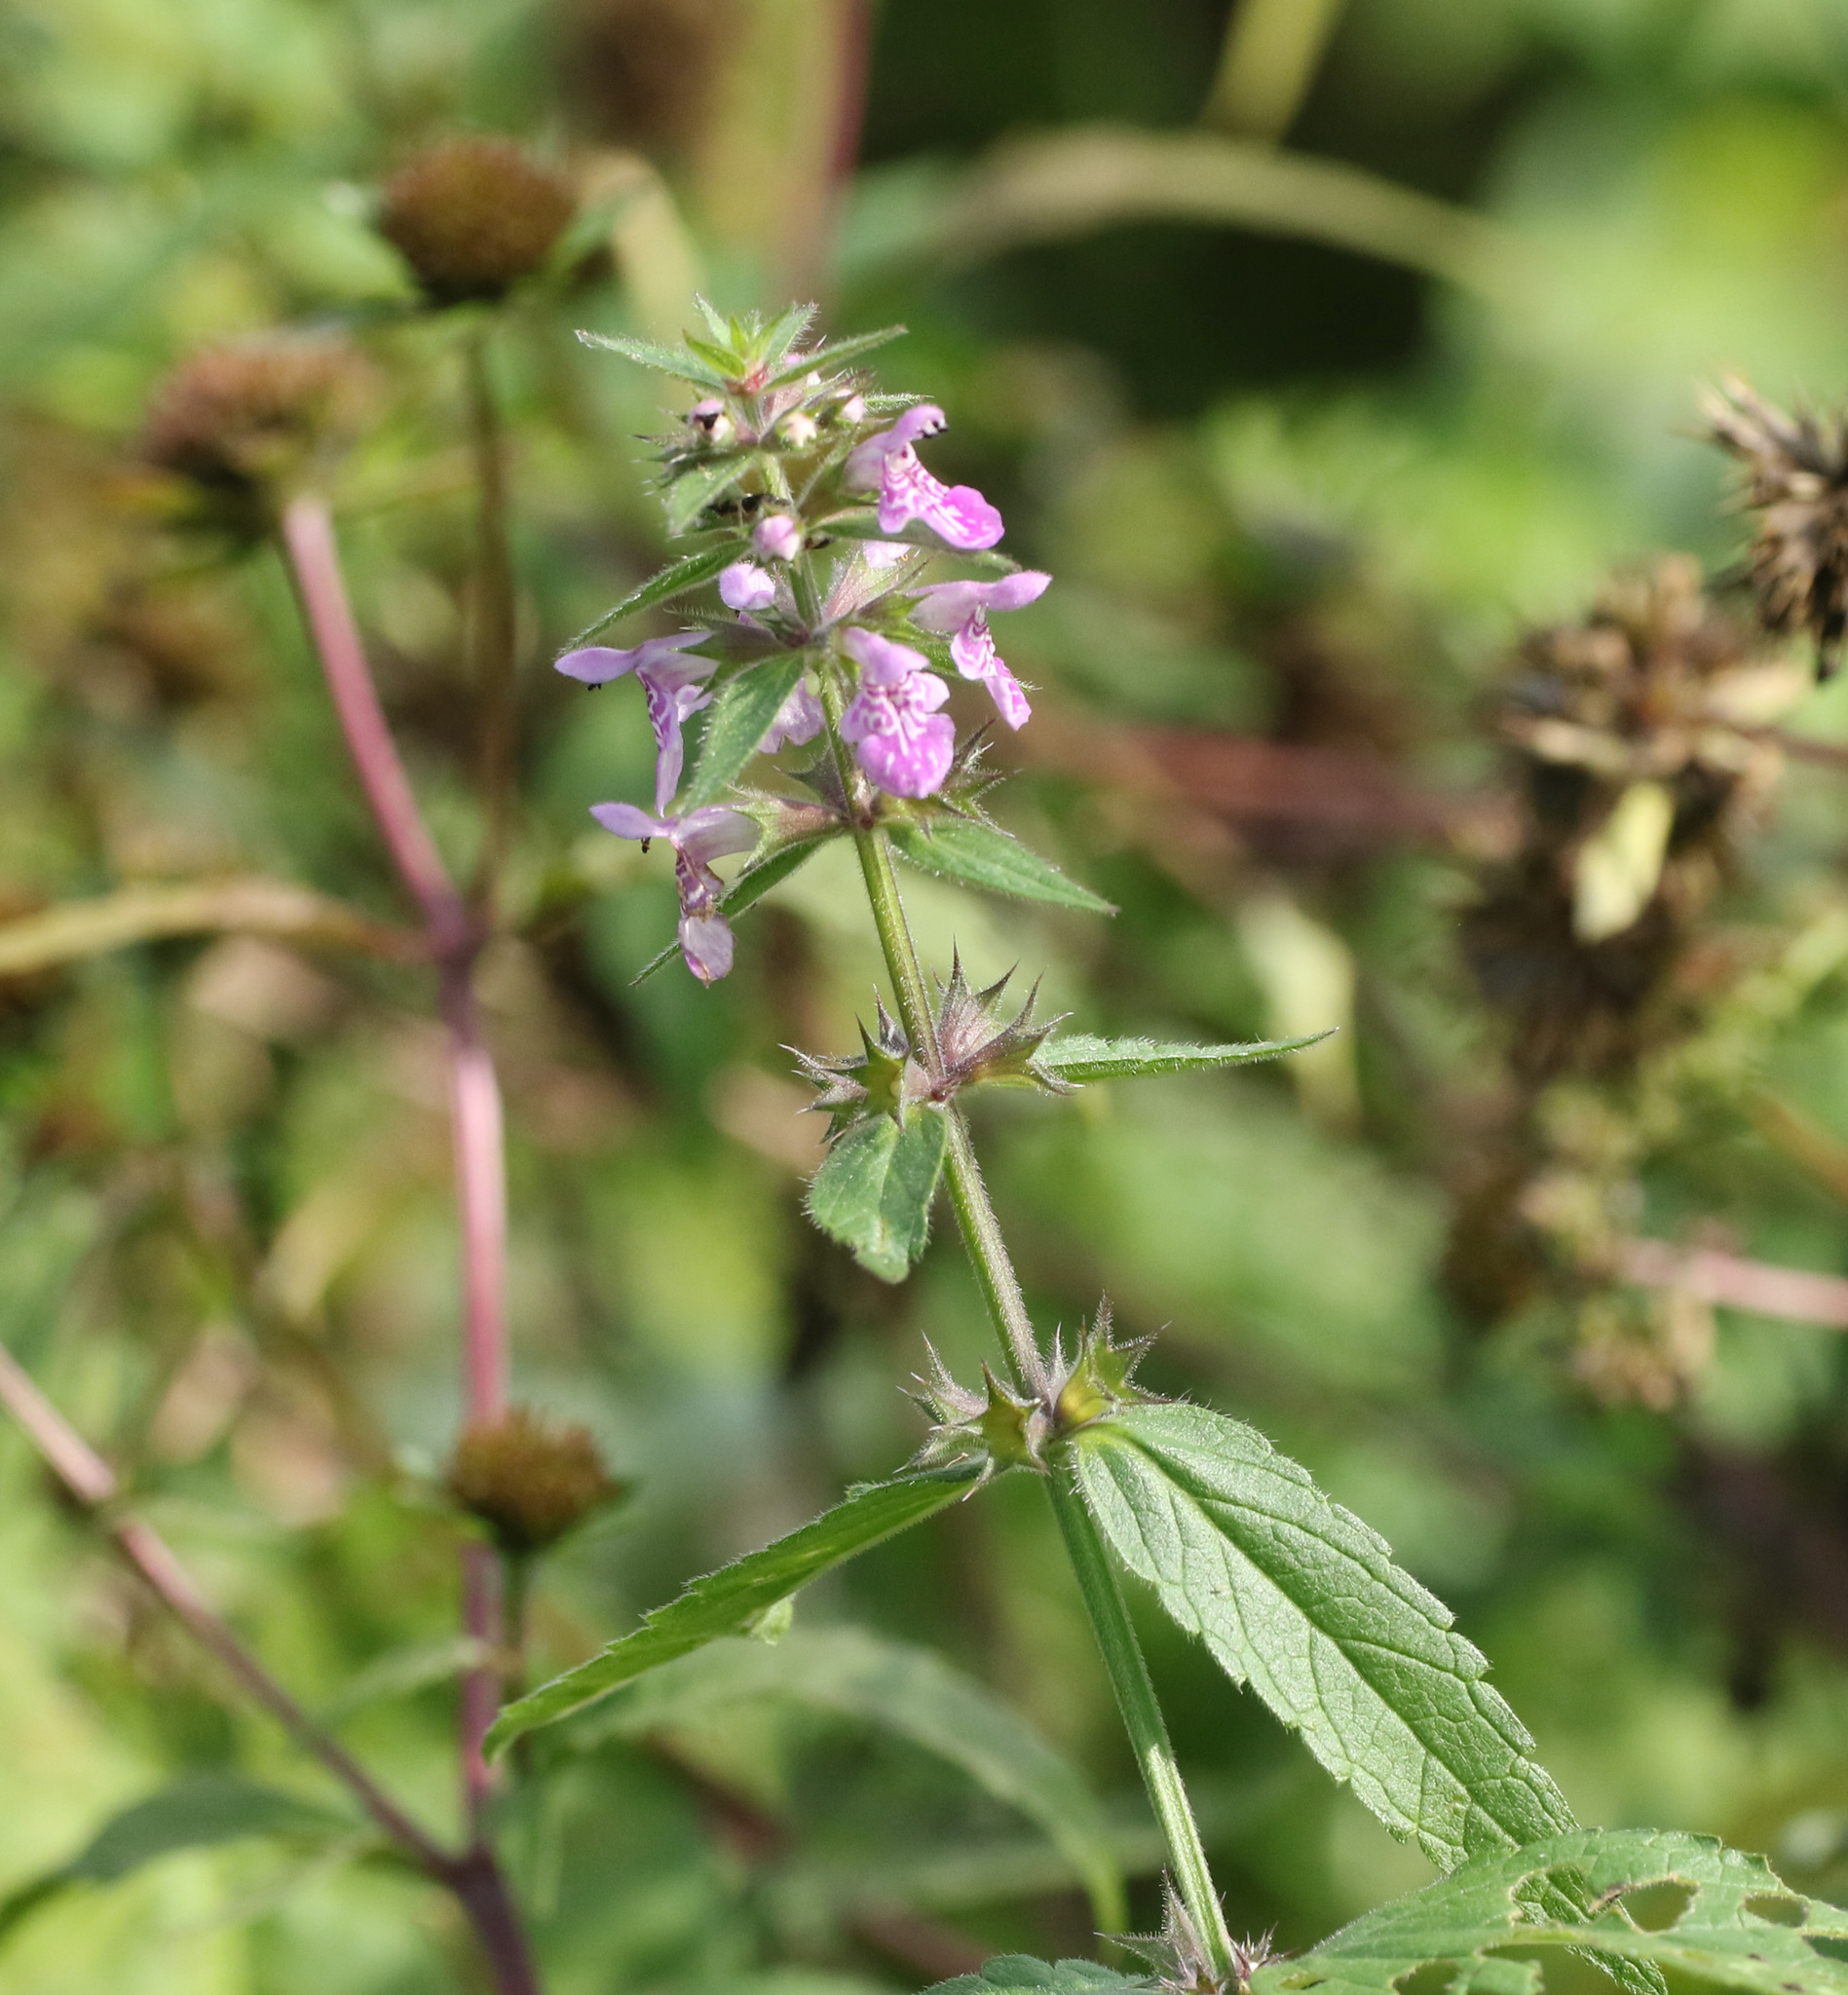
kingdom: Plantae
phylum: Tracheophyta
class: Magnoliopsida
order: Lamiales
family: Lamiaceae
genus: Stachys
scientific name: Stachys palustris
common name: Marsh woundwort
